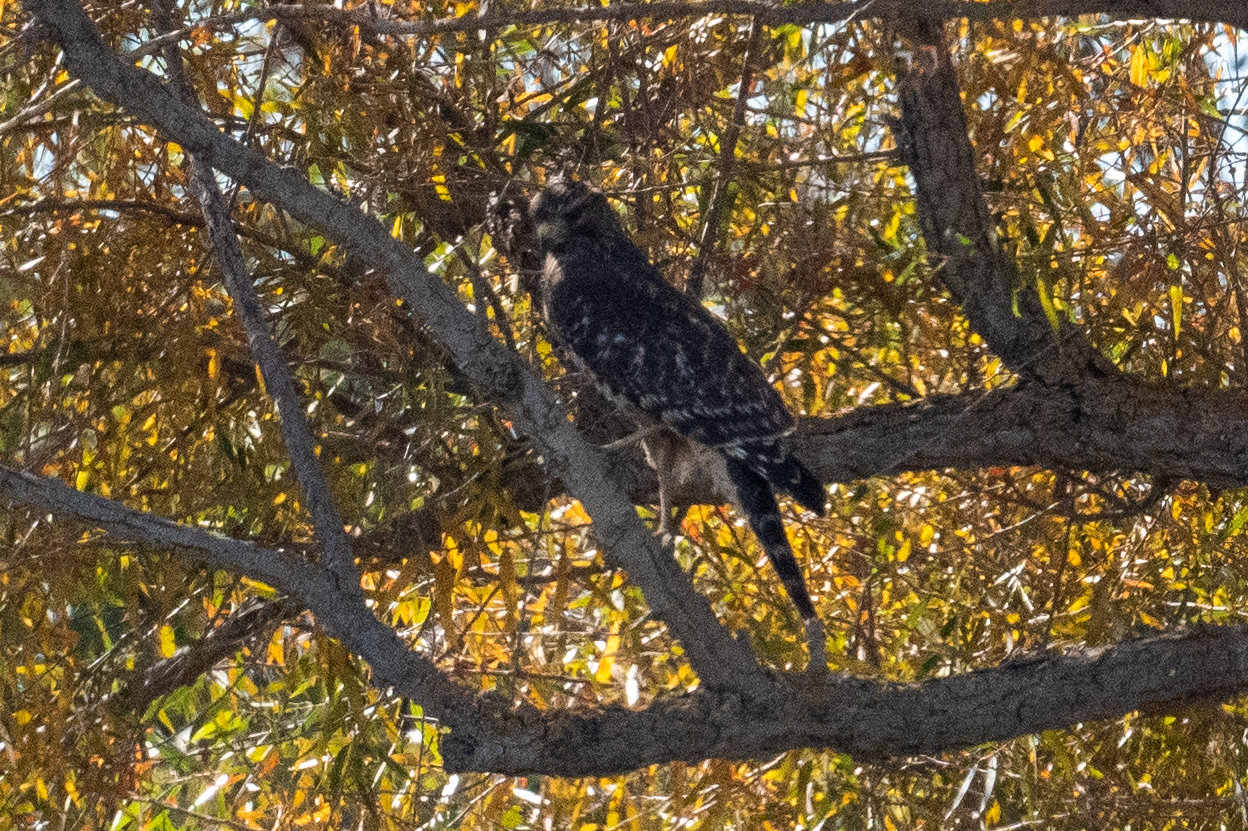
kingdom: Animalia
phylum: Chordata
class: Aves
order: Accipitriformes
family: Accipitridae
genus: Buteo
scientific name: Buteo lineatus
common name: Red-shouldered hawk
